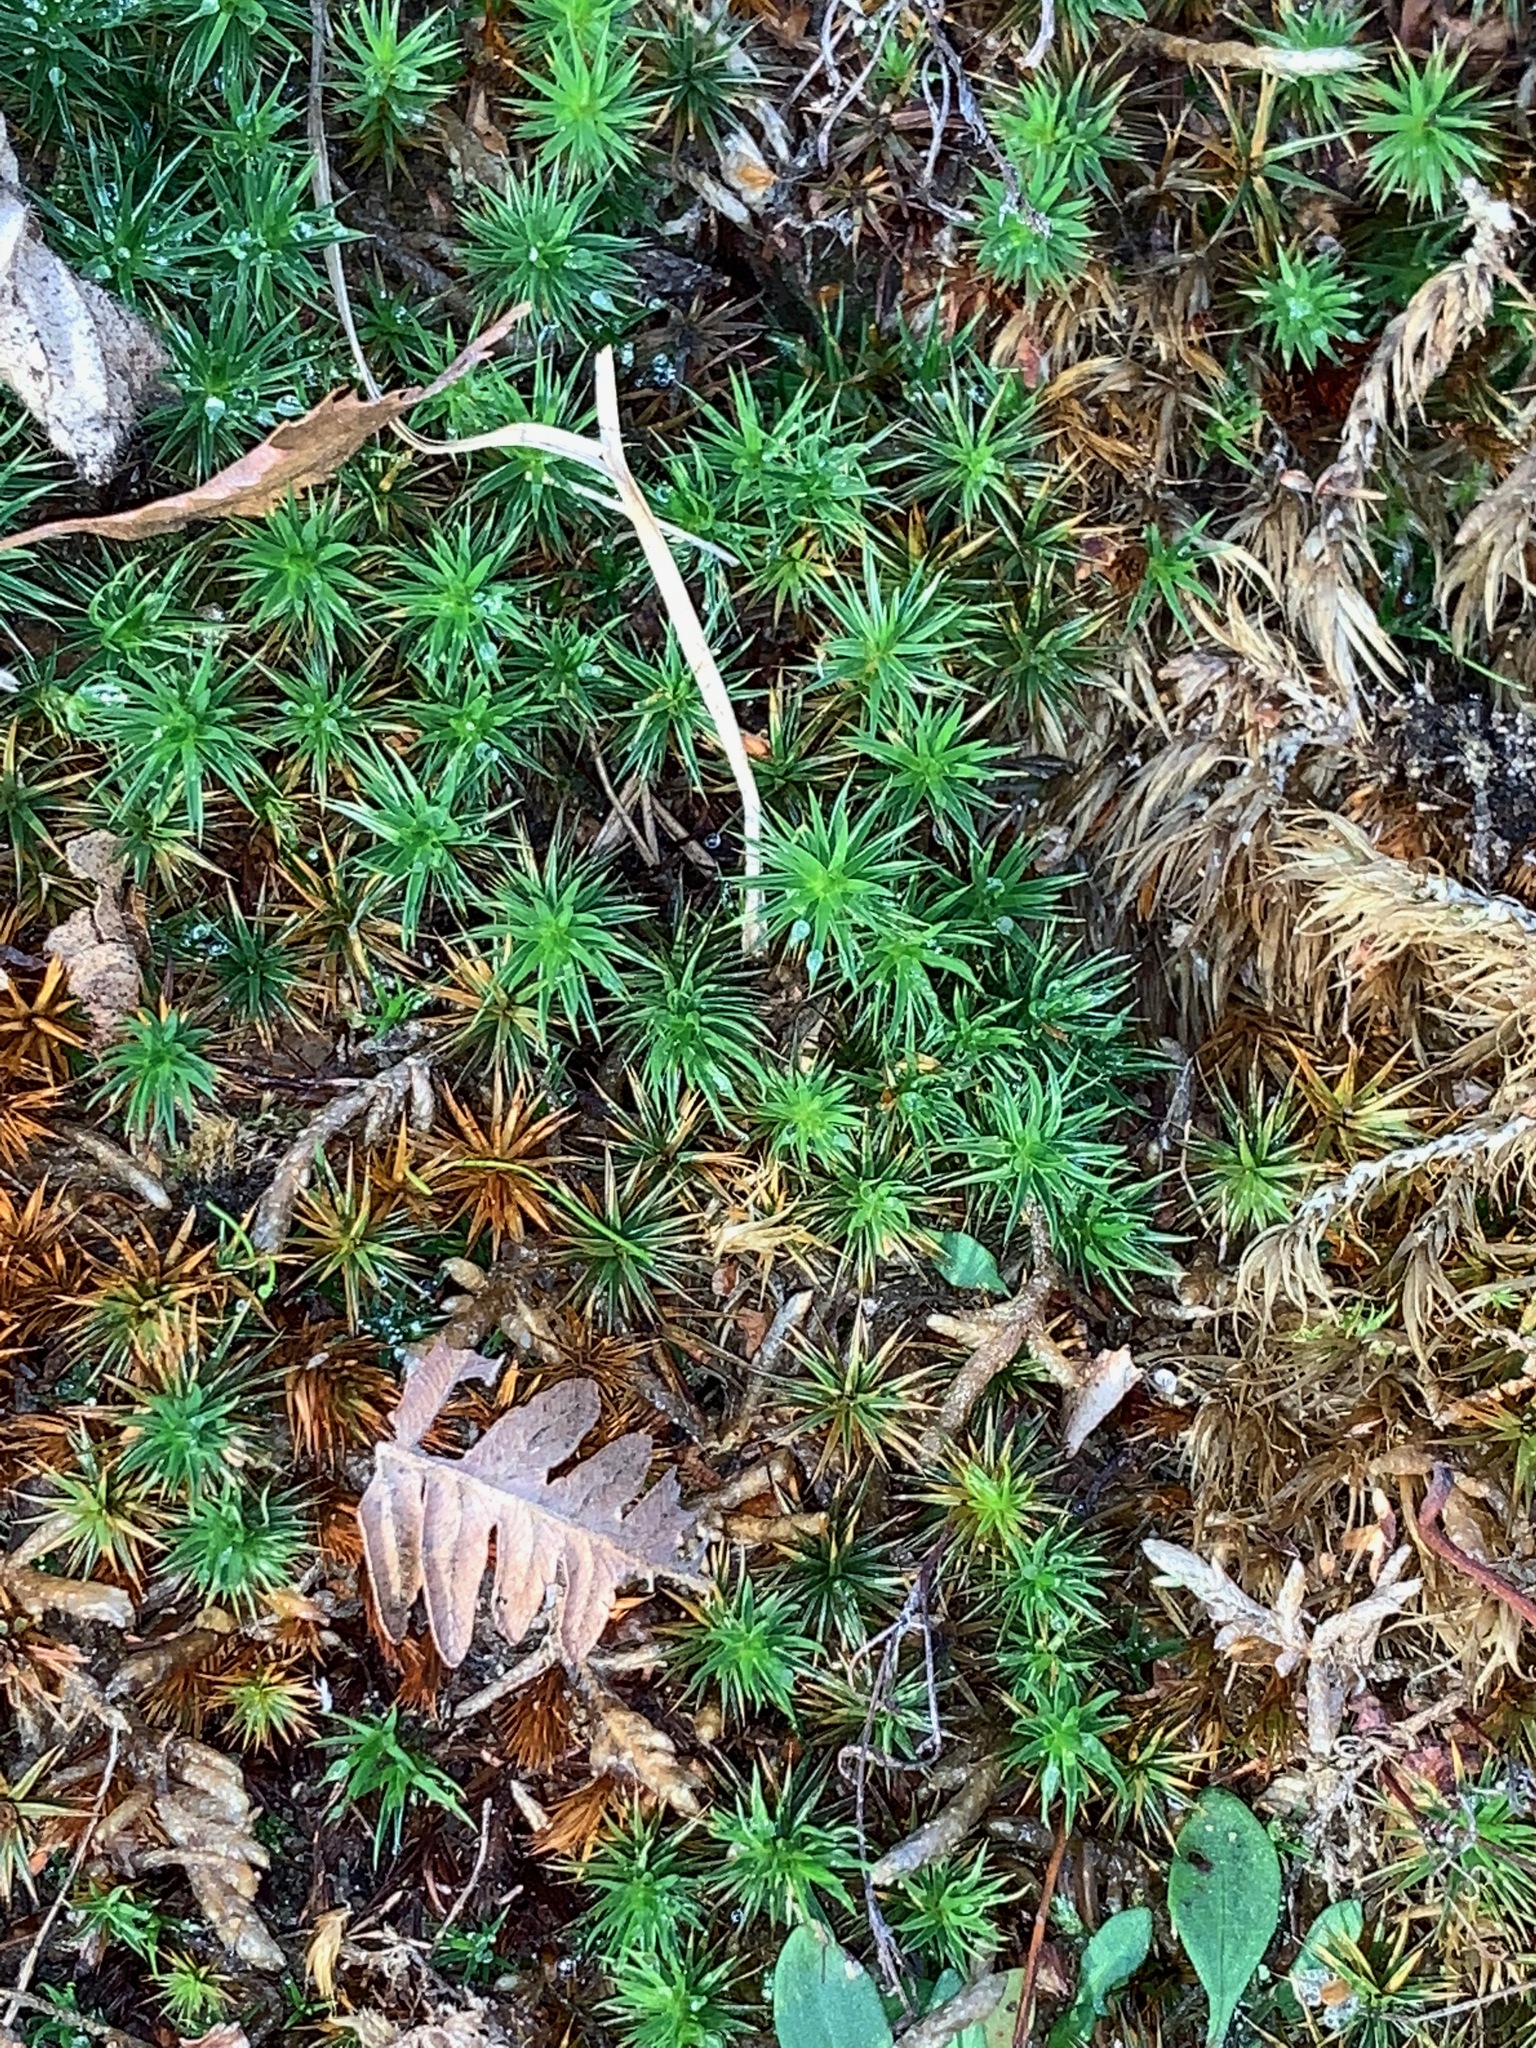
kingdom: Plantae
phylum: Bryophyta
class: Polytrichopsida
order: Polytrichales
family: Polytrichaceae
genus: Polytrichum
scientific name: Polytrichum formosum
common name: Bank haircap moss
